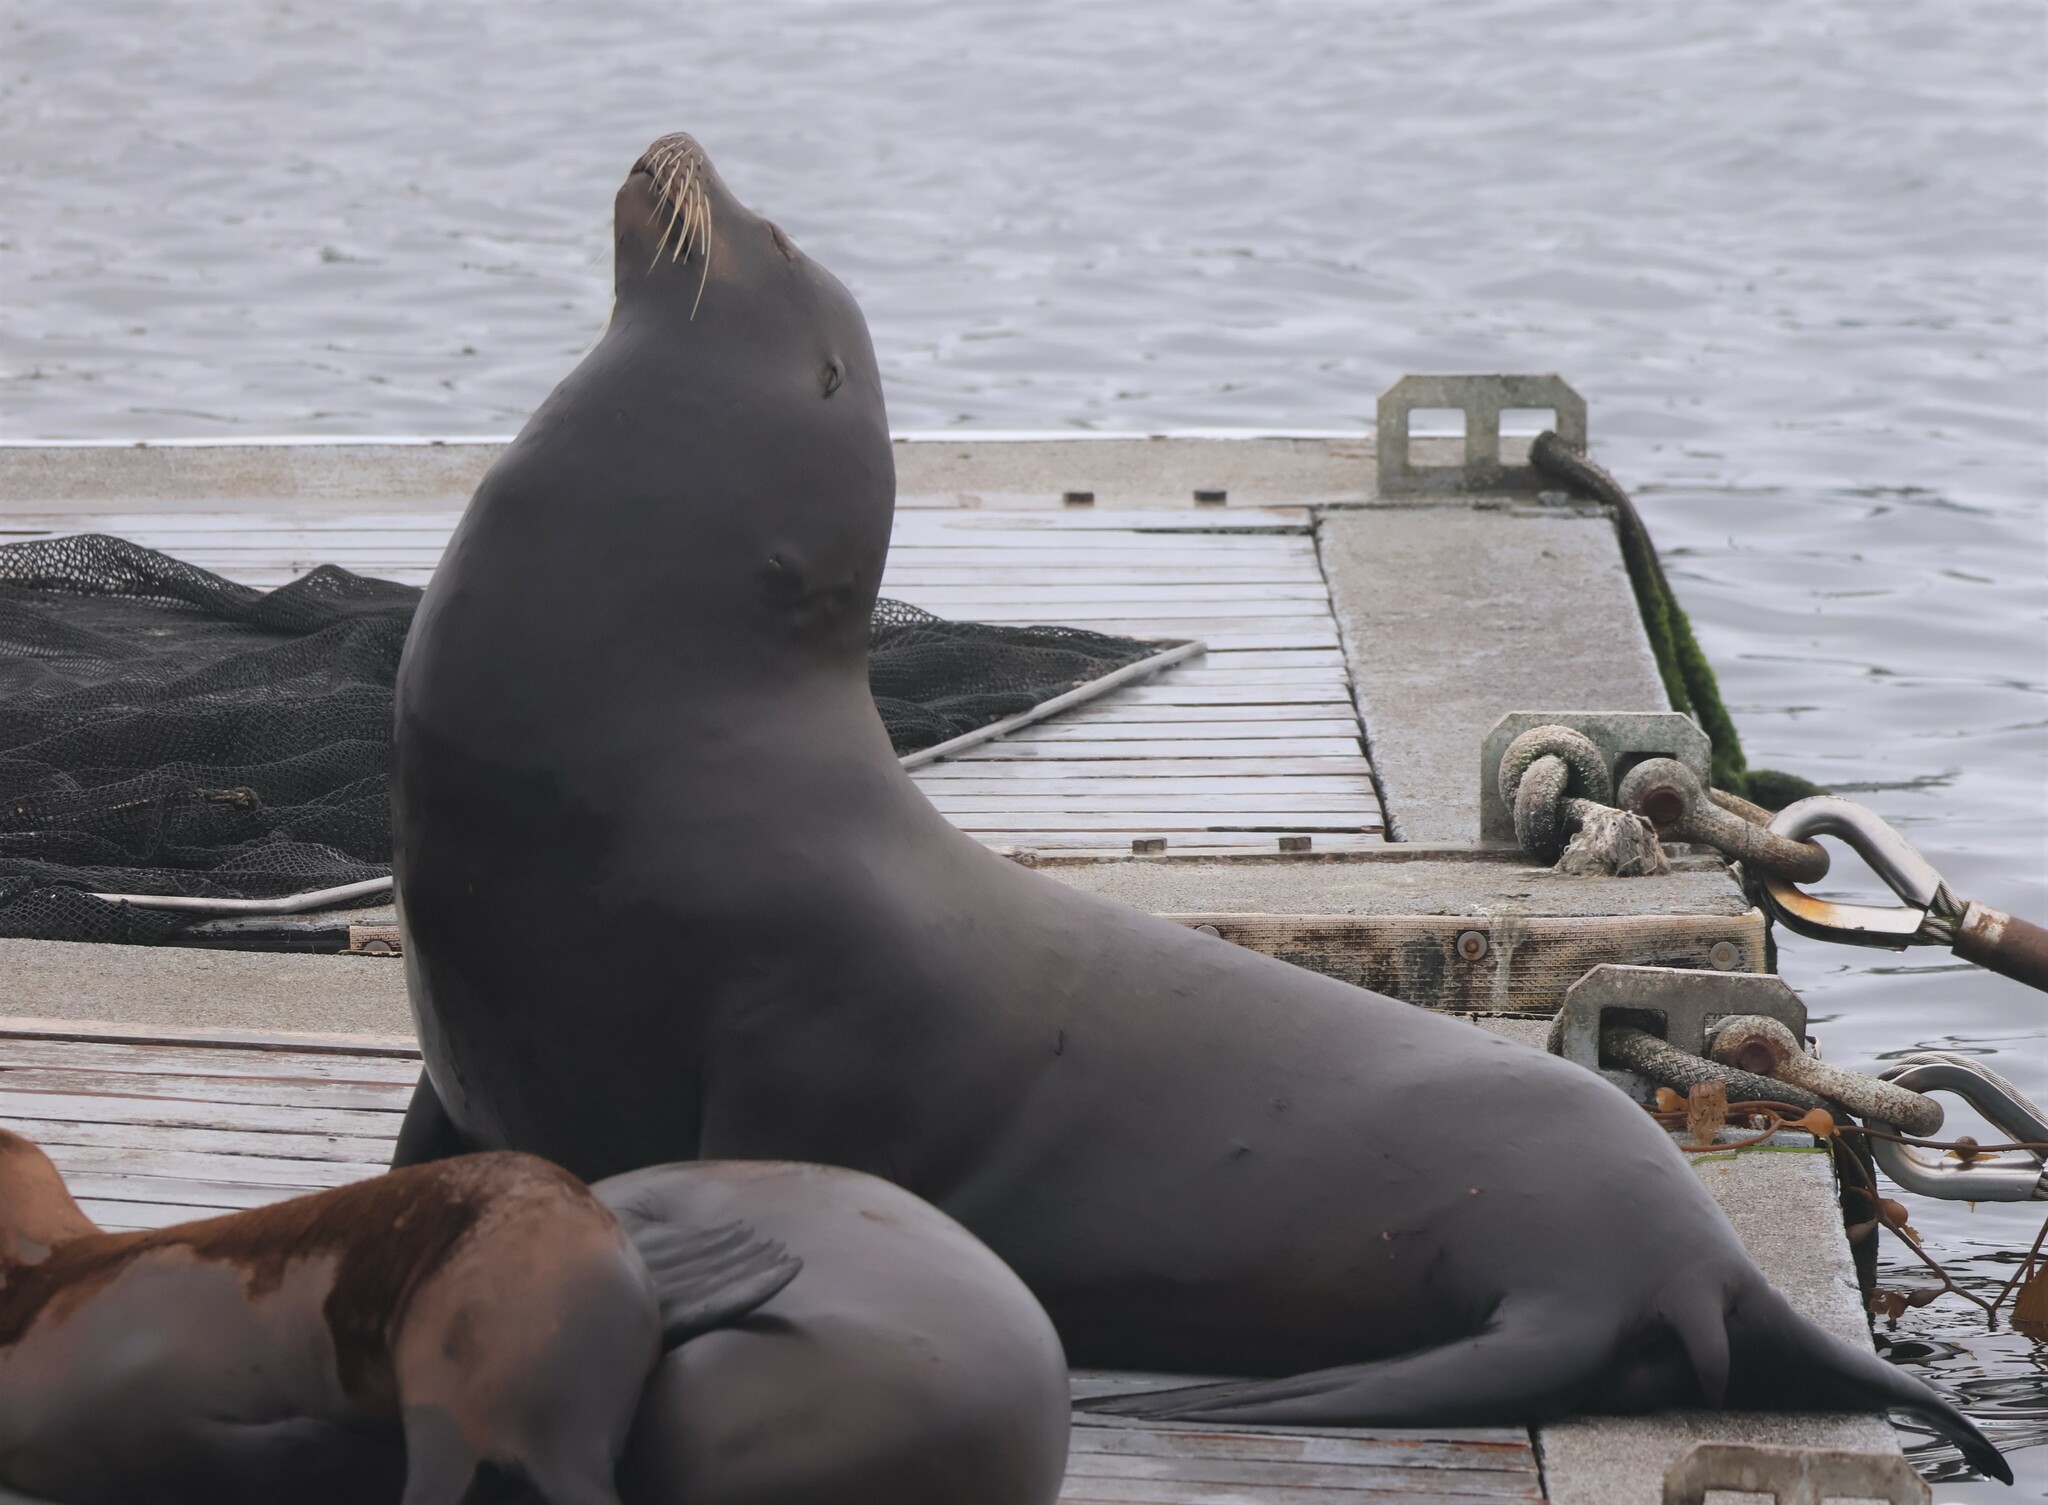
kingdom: Animalia
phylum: Chordata
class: Mammalia
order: Carnivora
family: Otariidae
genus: Zalophus
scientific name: Zalophus californianus
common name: California sea lion
